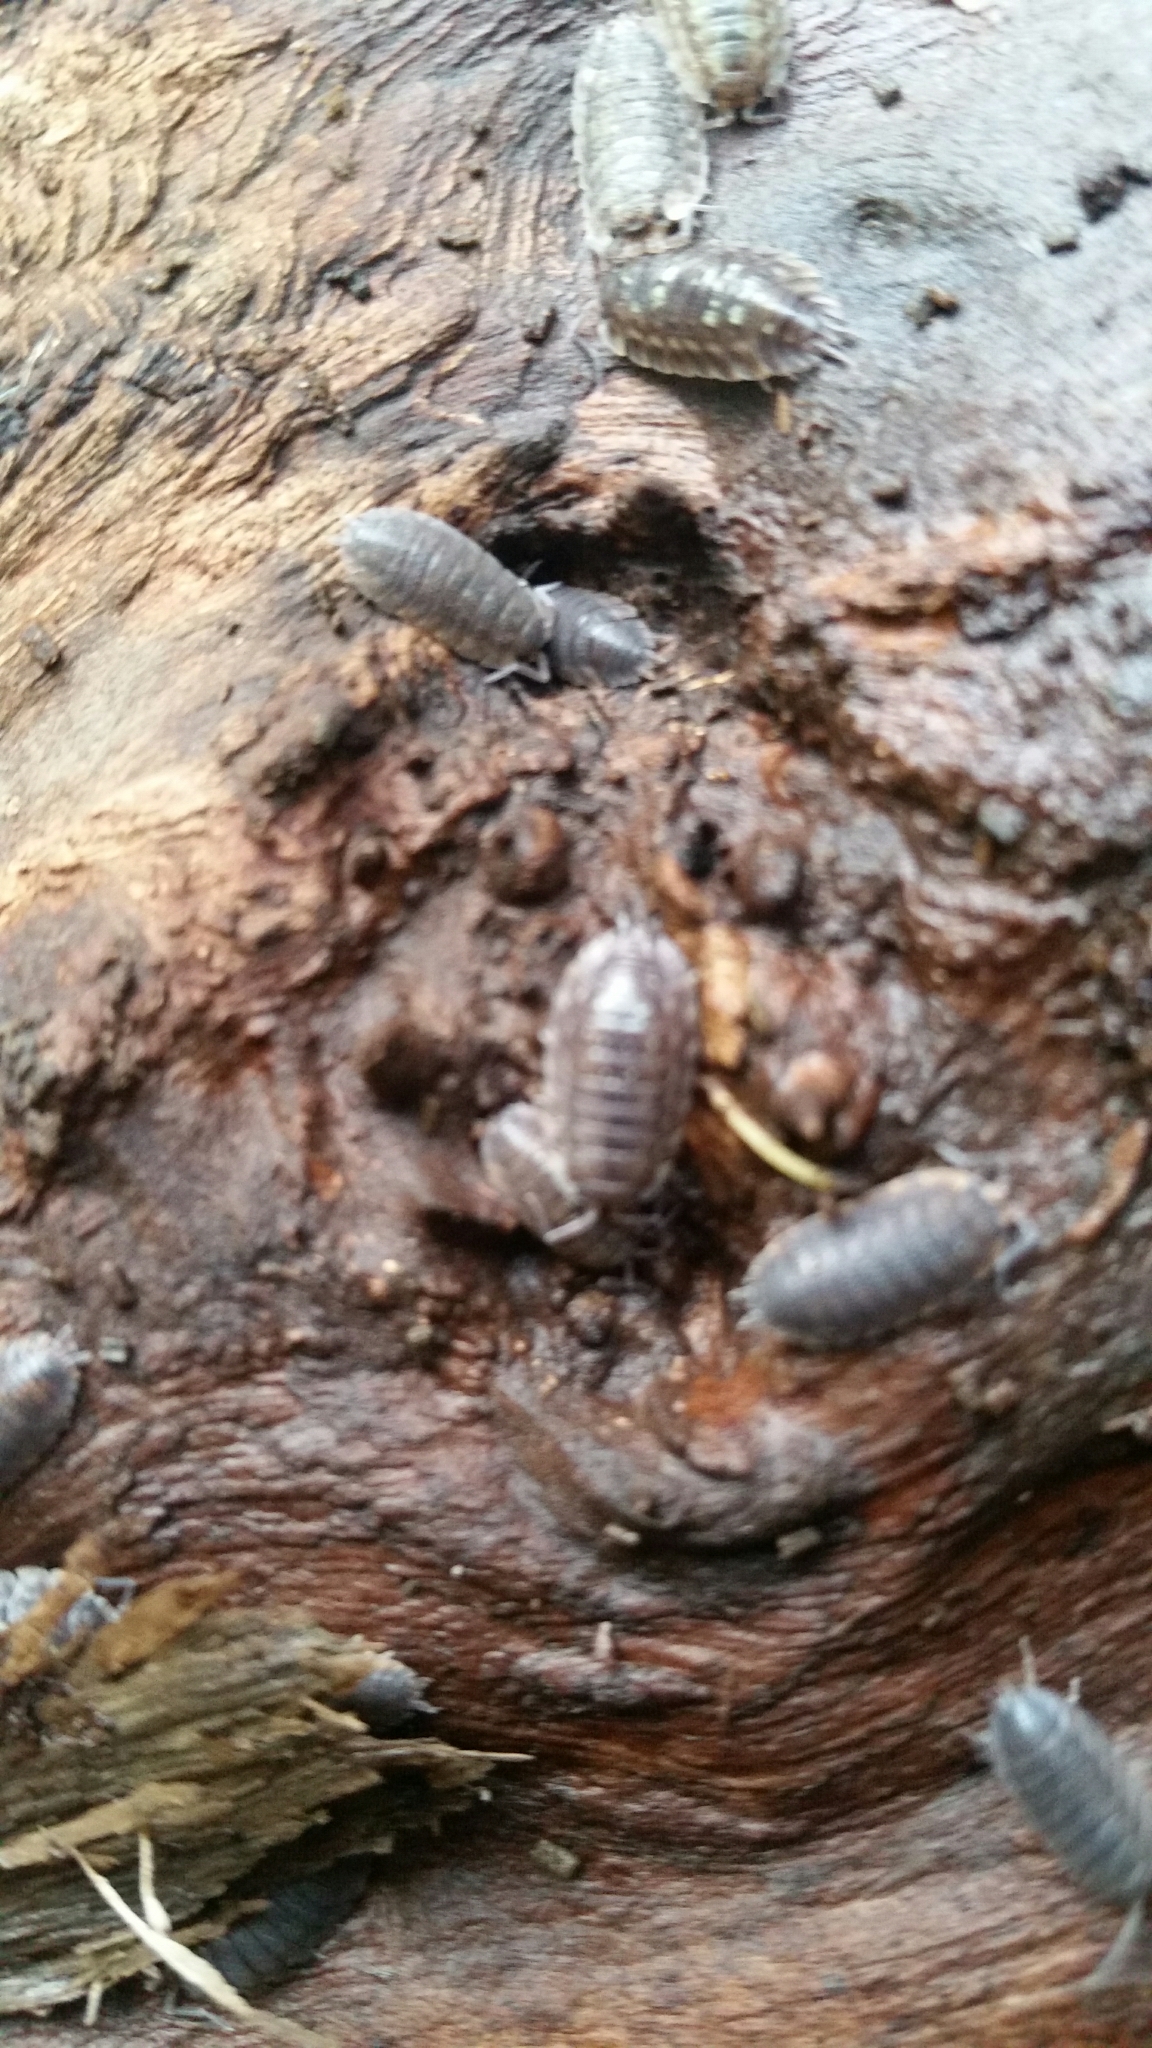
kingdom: Animalia
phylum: Arthropoda
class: Malacostraca
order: Isopoda
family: Oniscidae
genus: Oniscus
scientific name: Oniscus asellus
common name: Common shiny woodlouse
